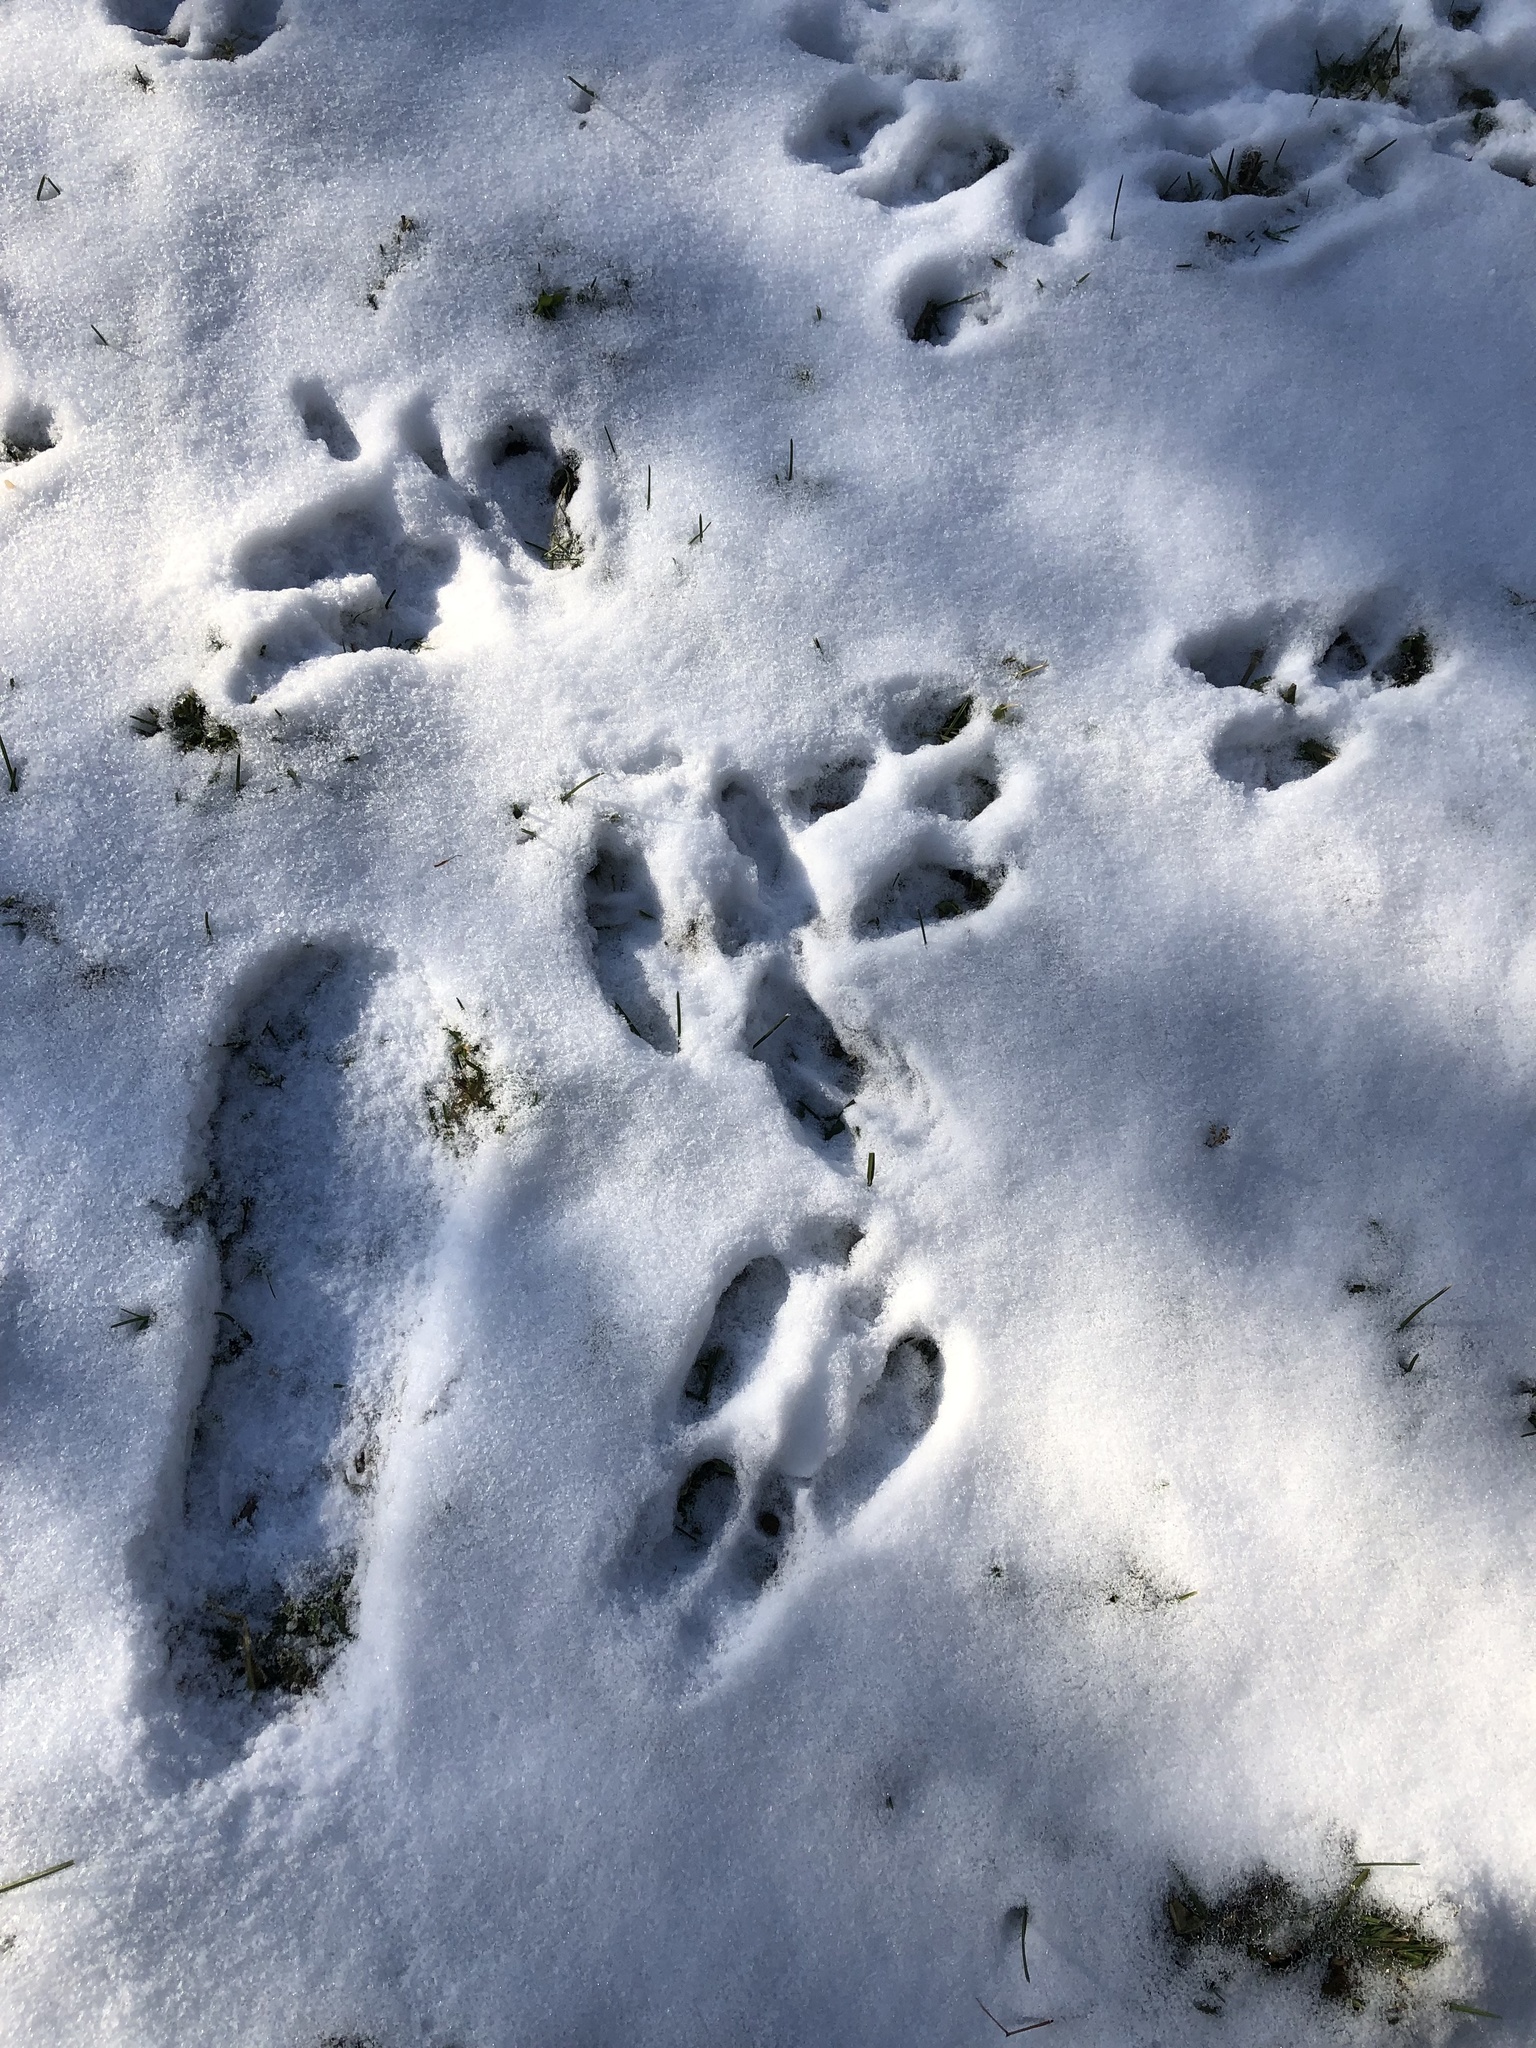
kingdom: Animalia
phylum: Chordata
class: Mammalia
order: Lagomorpha
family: Leporidae
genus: Sylvilagus
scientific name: Sylvilagus floridanus
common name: Eastern cottontail
